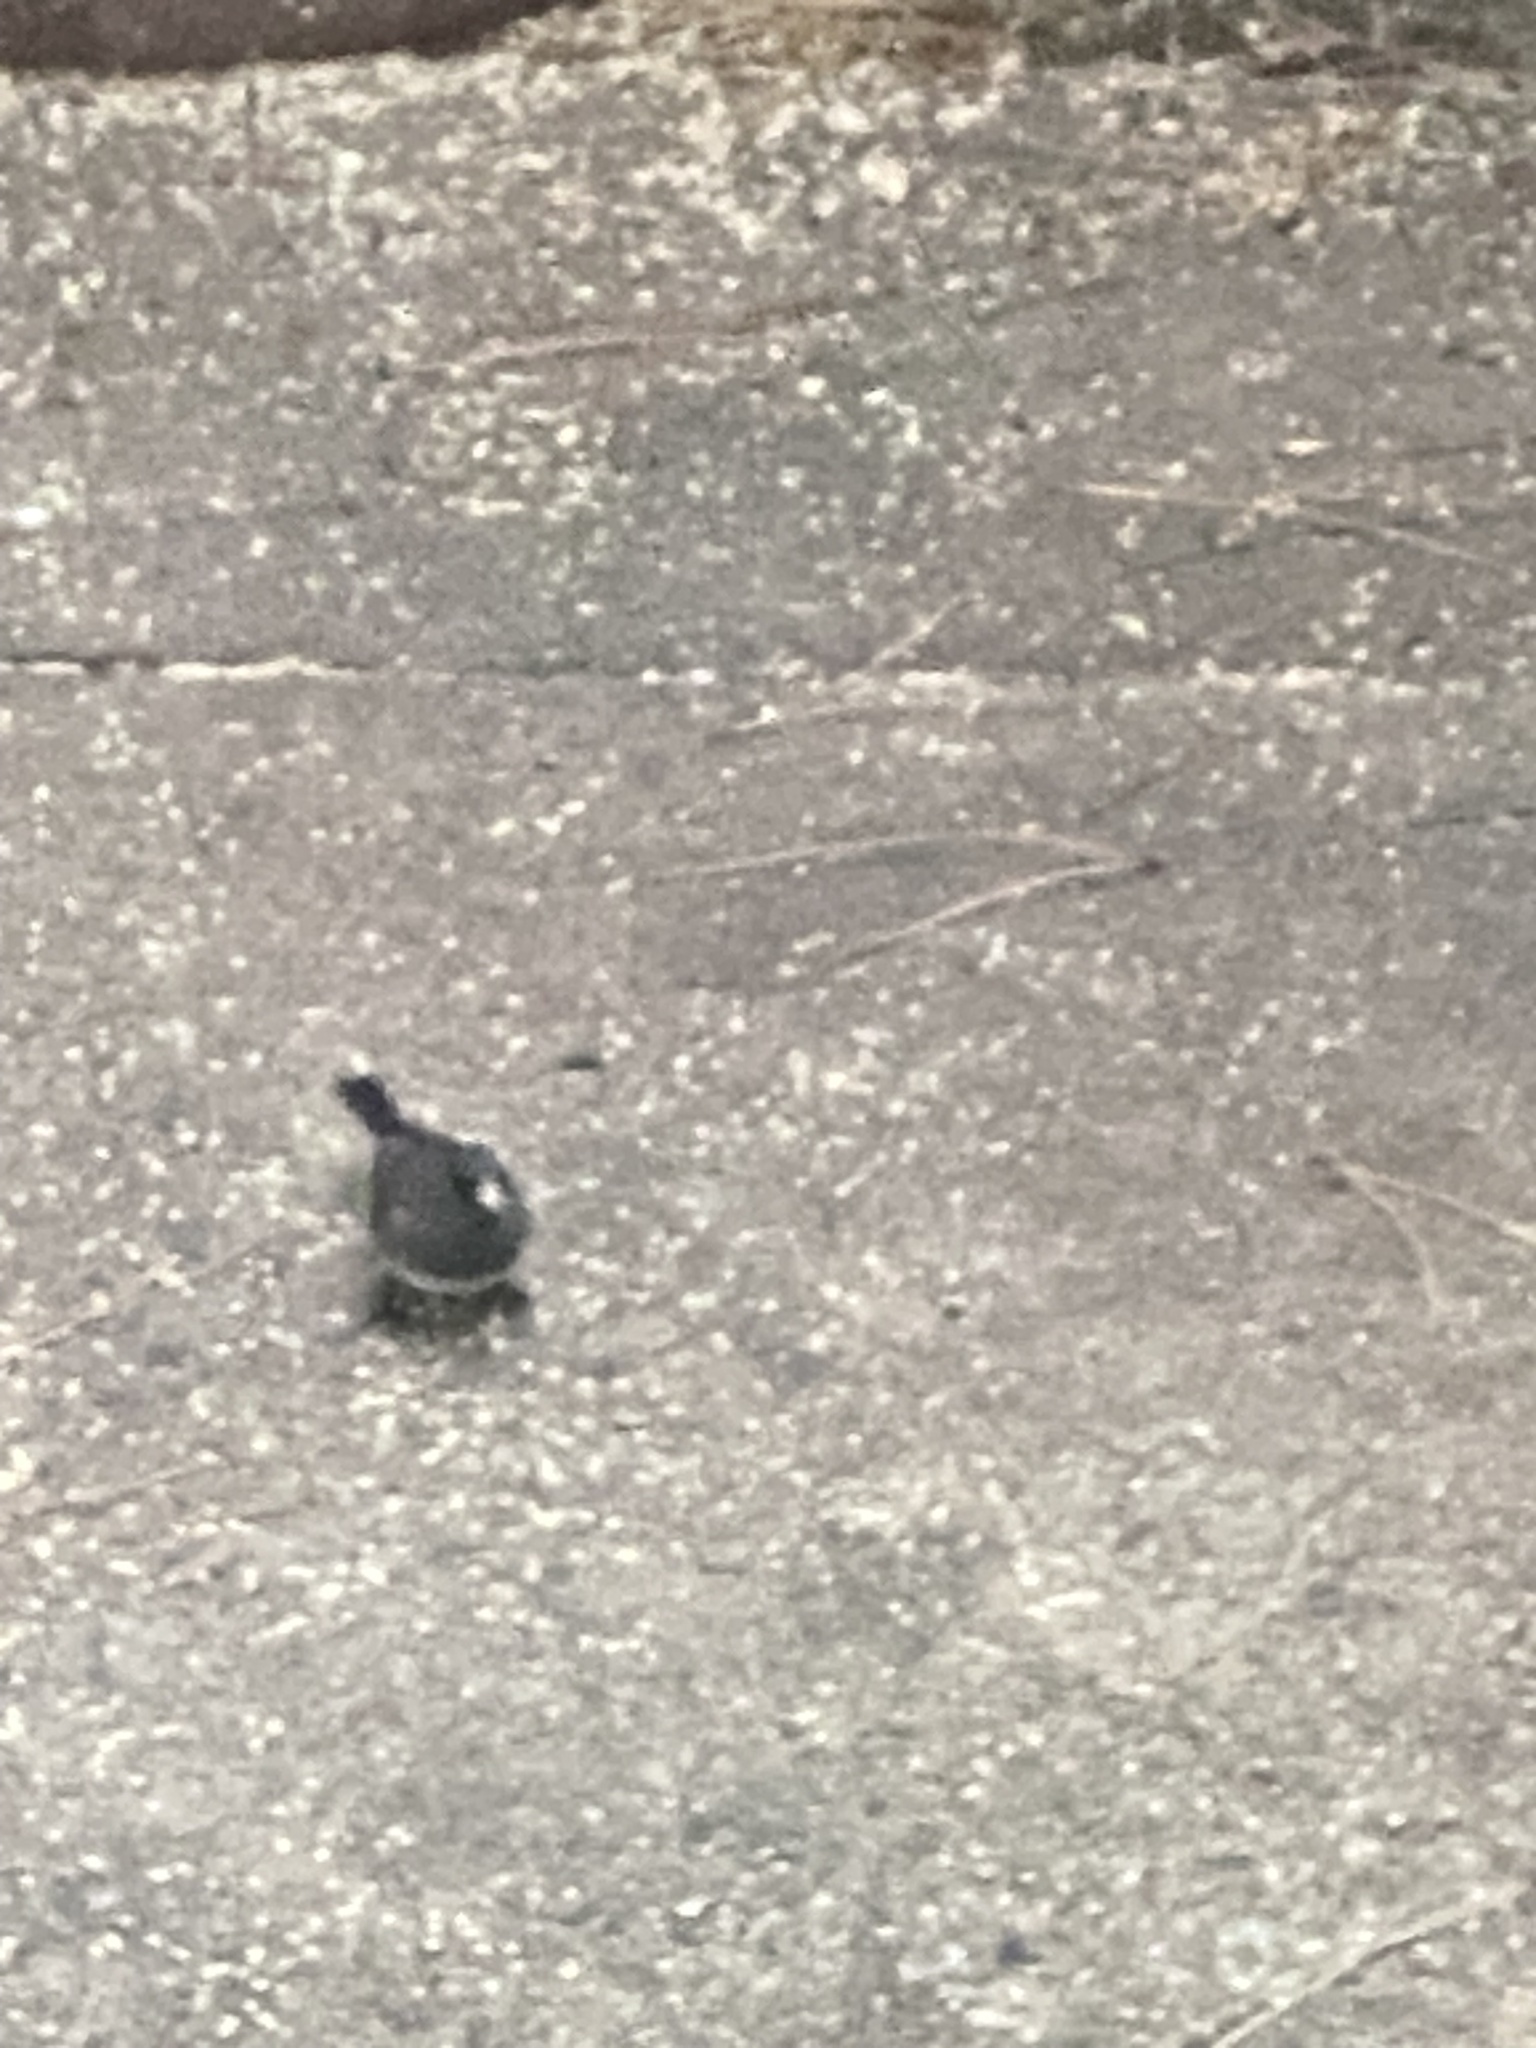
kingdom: Animalia
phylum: Chordata
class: Aves
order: Passeriformes
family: Passerellidae
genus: Junco
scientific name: Junco hyemalis
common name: Dark-eyed junco
